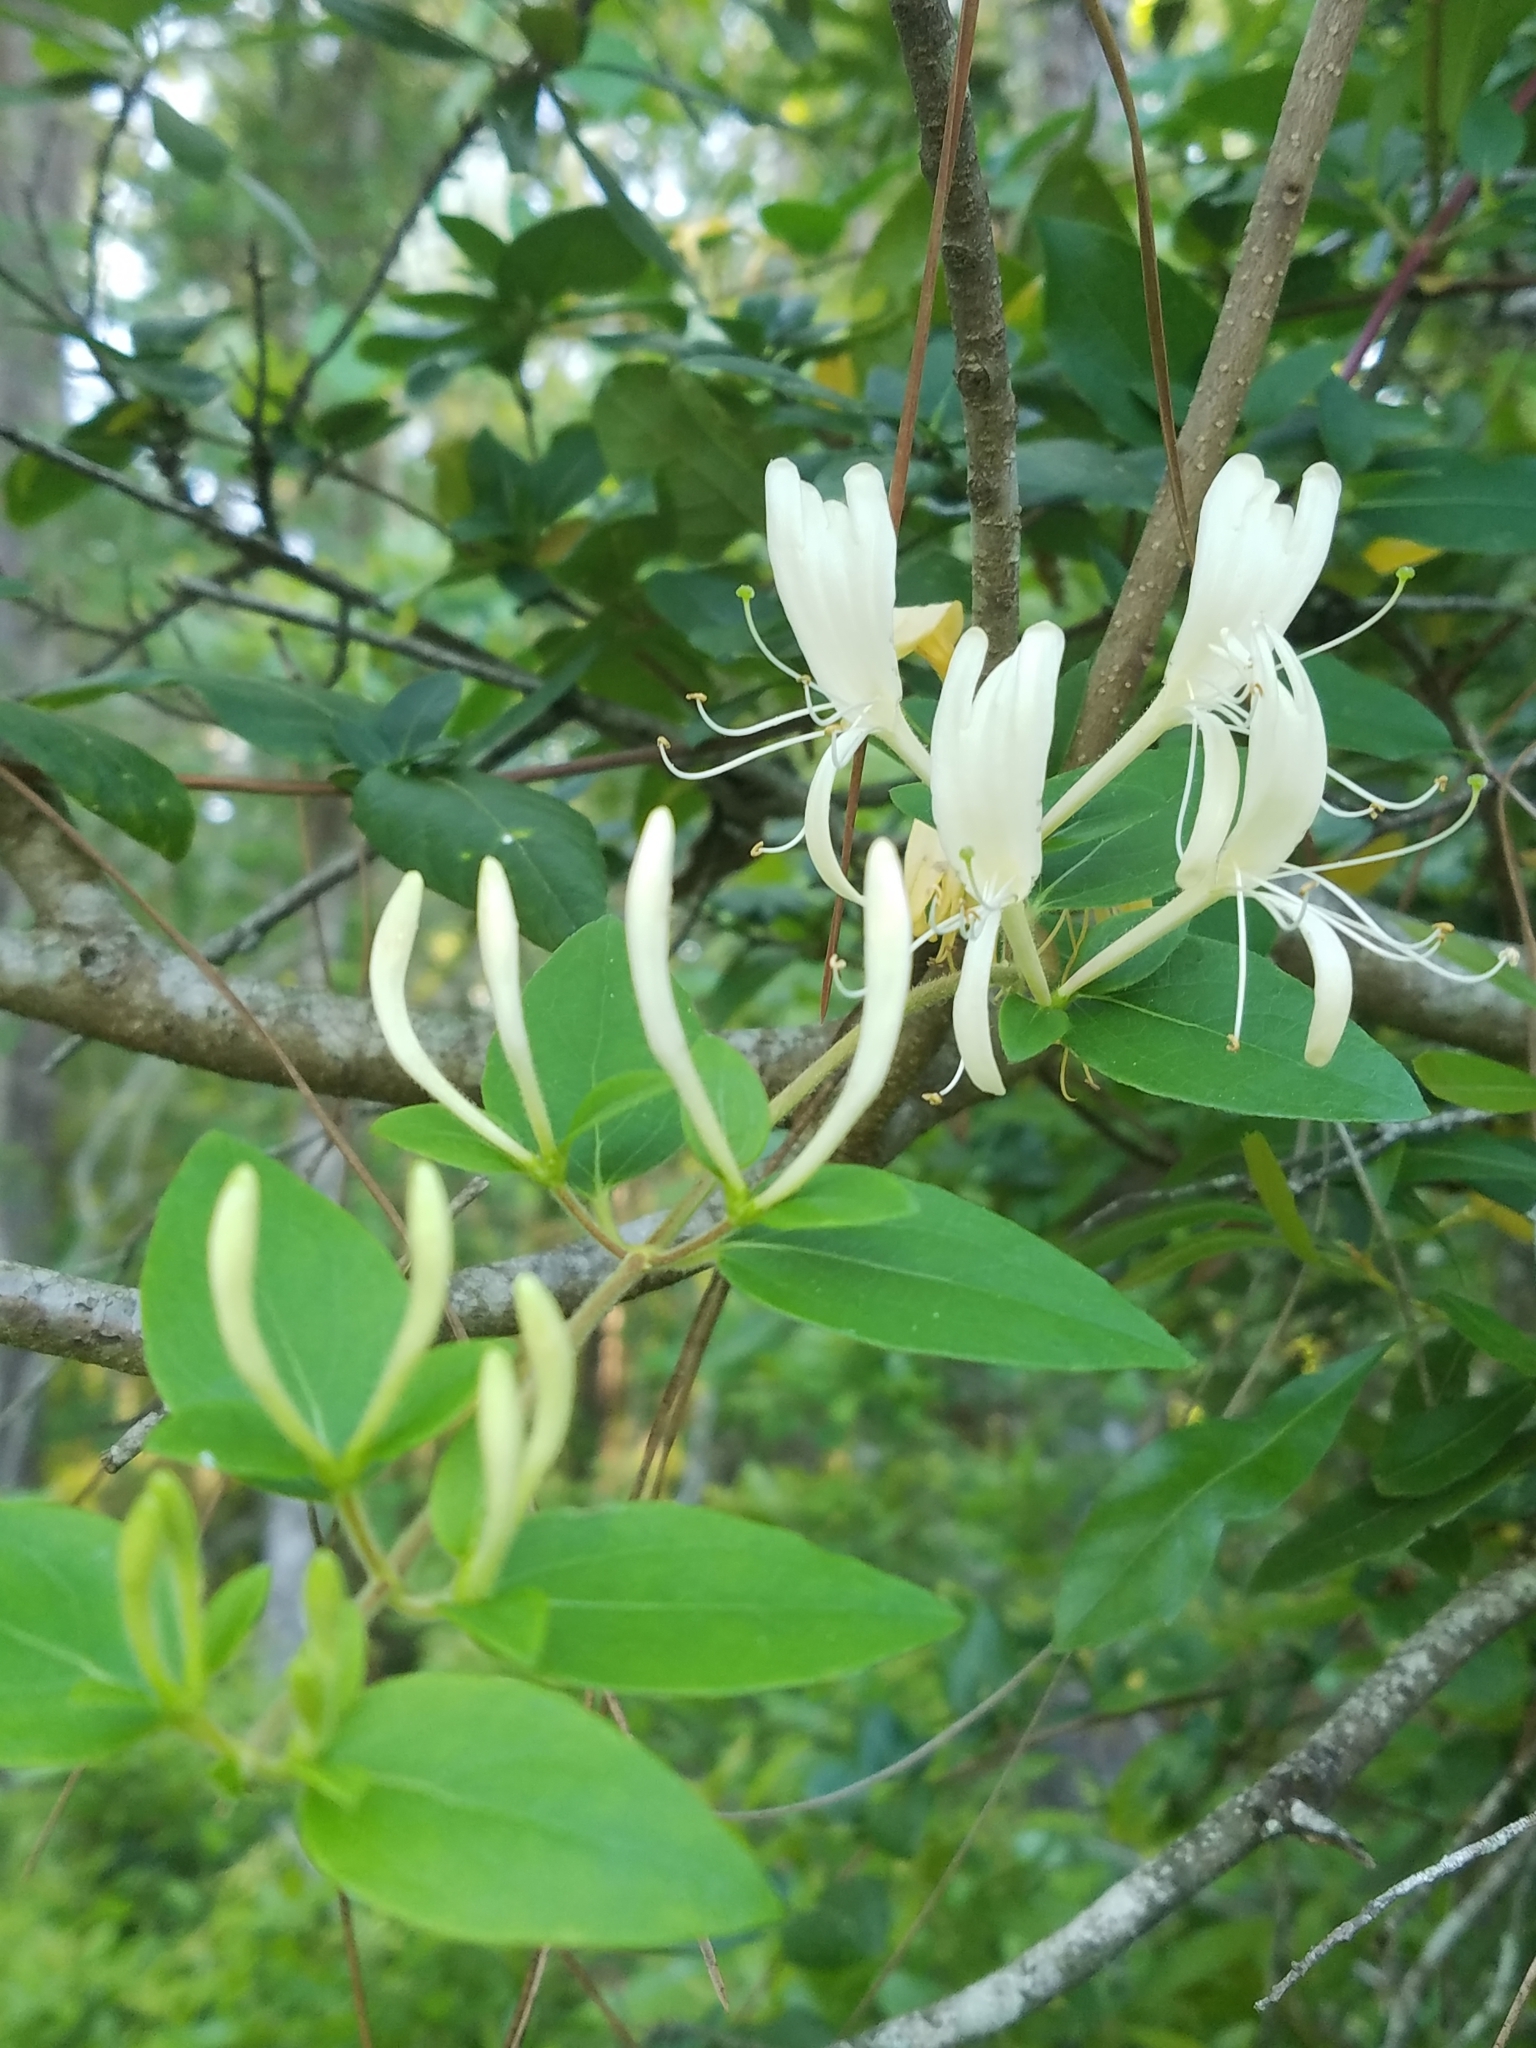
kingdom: Plantae
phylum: Tracheophyta
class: Magnoliopsida
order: Dipsacales
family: Caprifoliaceae
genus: Lonicera
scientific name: Lonicera japonica
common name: Japanese honeysuckle
